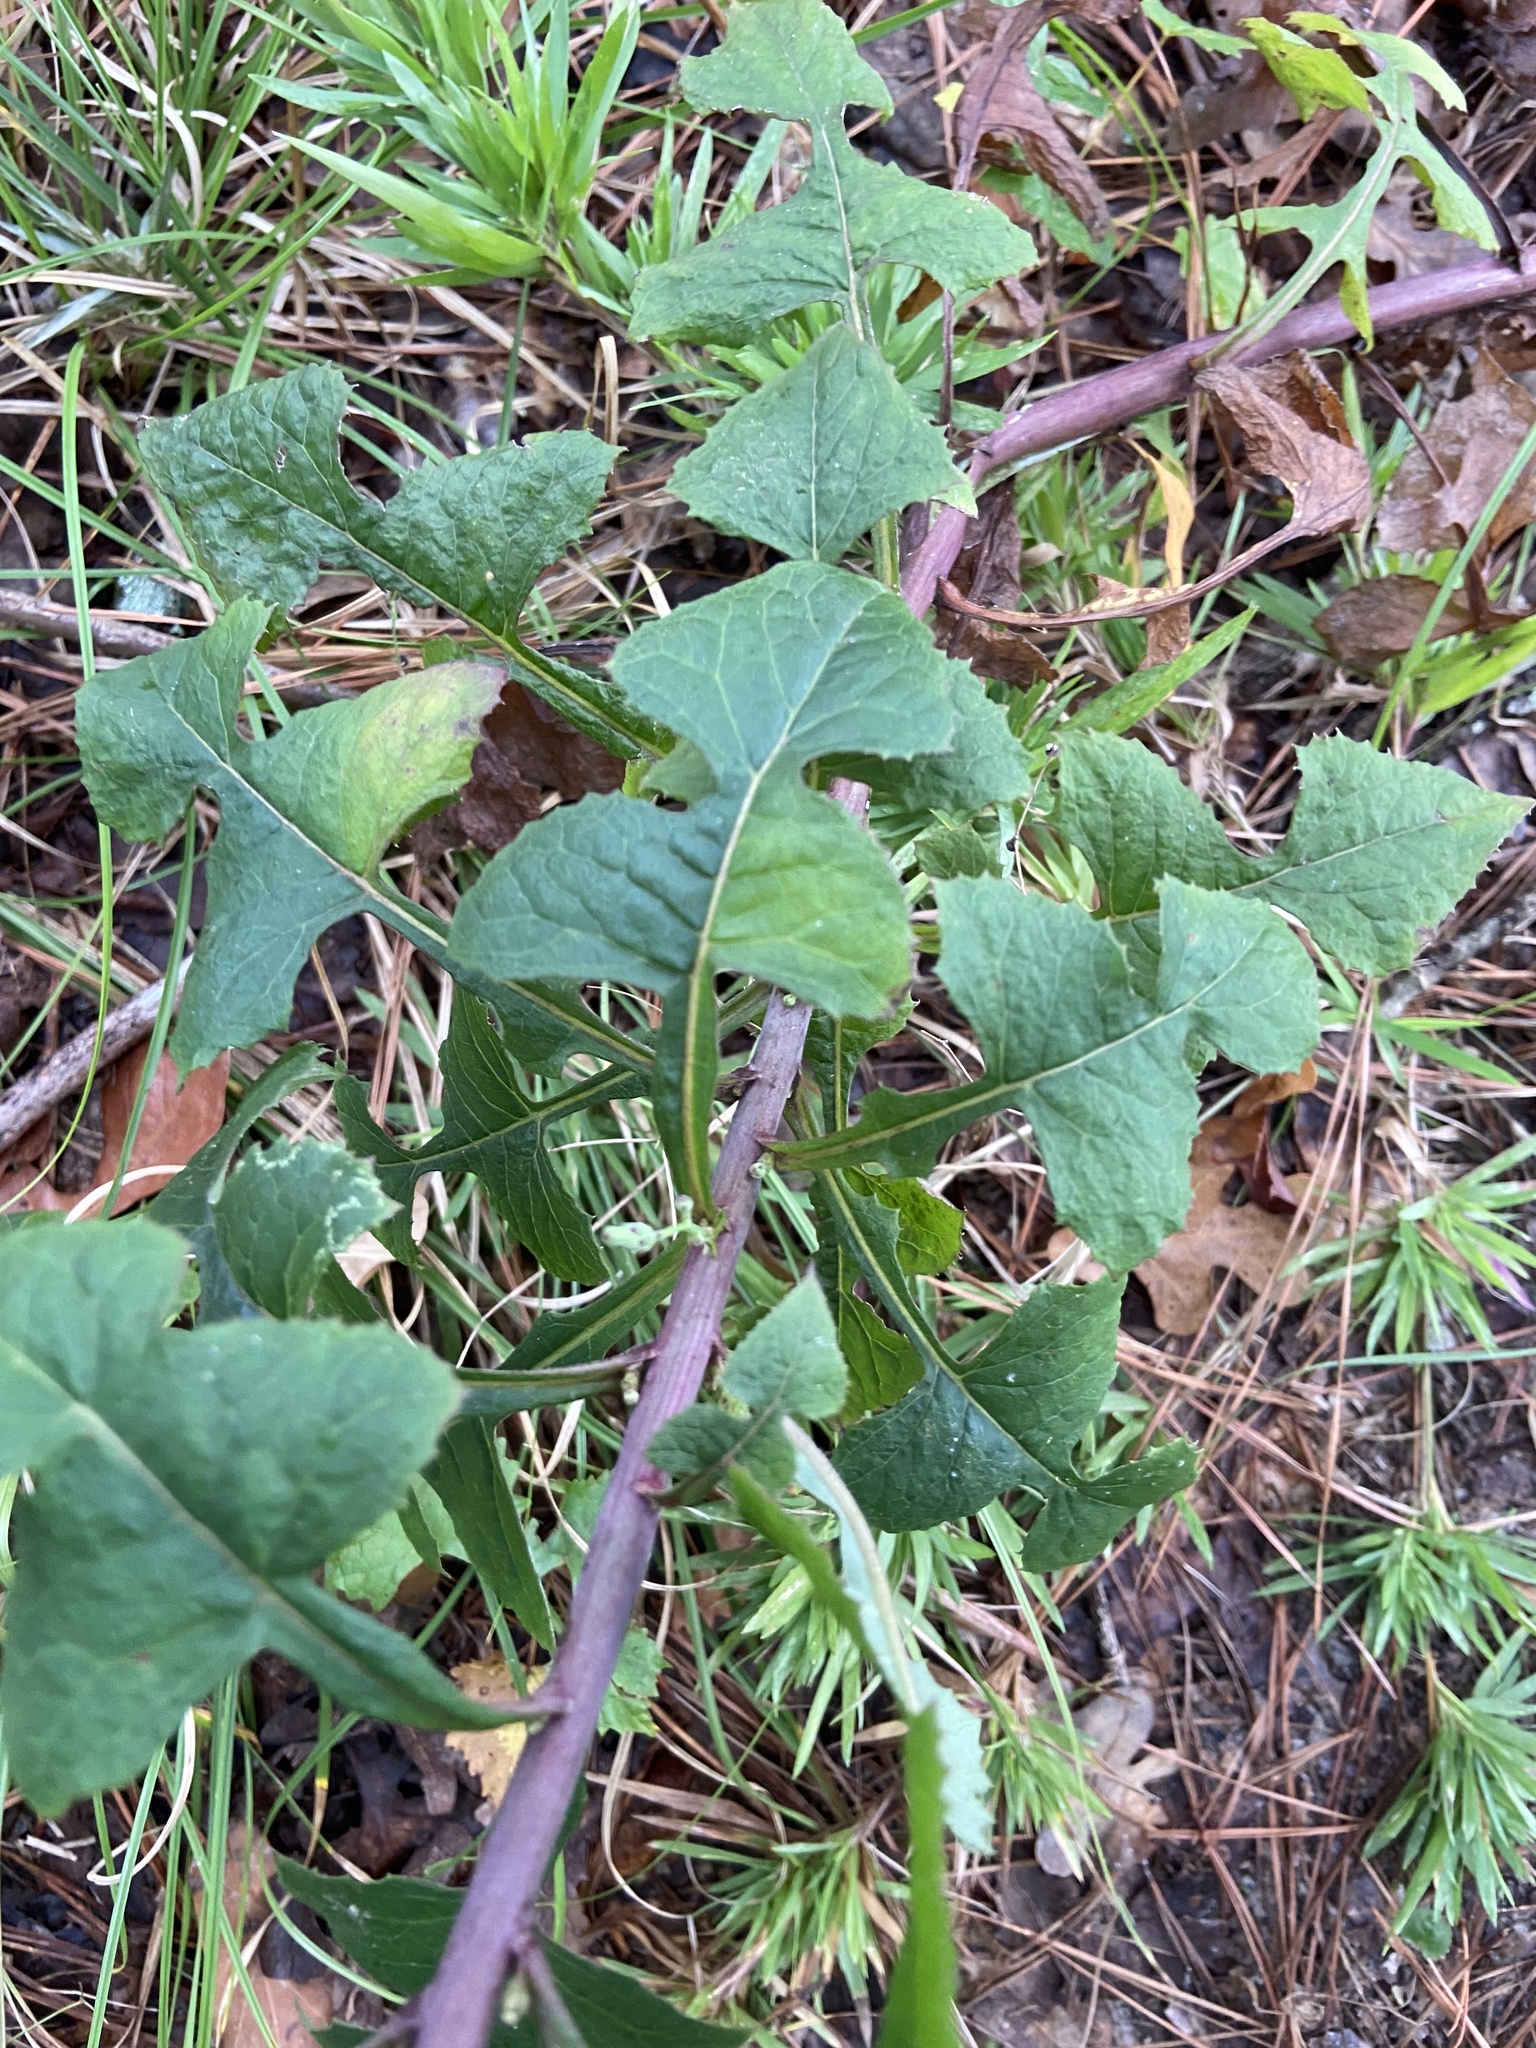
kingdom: Plantae
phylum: Tracheophyta
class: Magnoliopsida
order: Asterales
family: Asteraceae
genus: Lactuca
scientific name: Lactuca floridana
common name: Woodland lettuce
